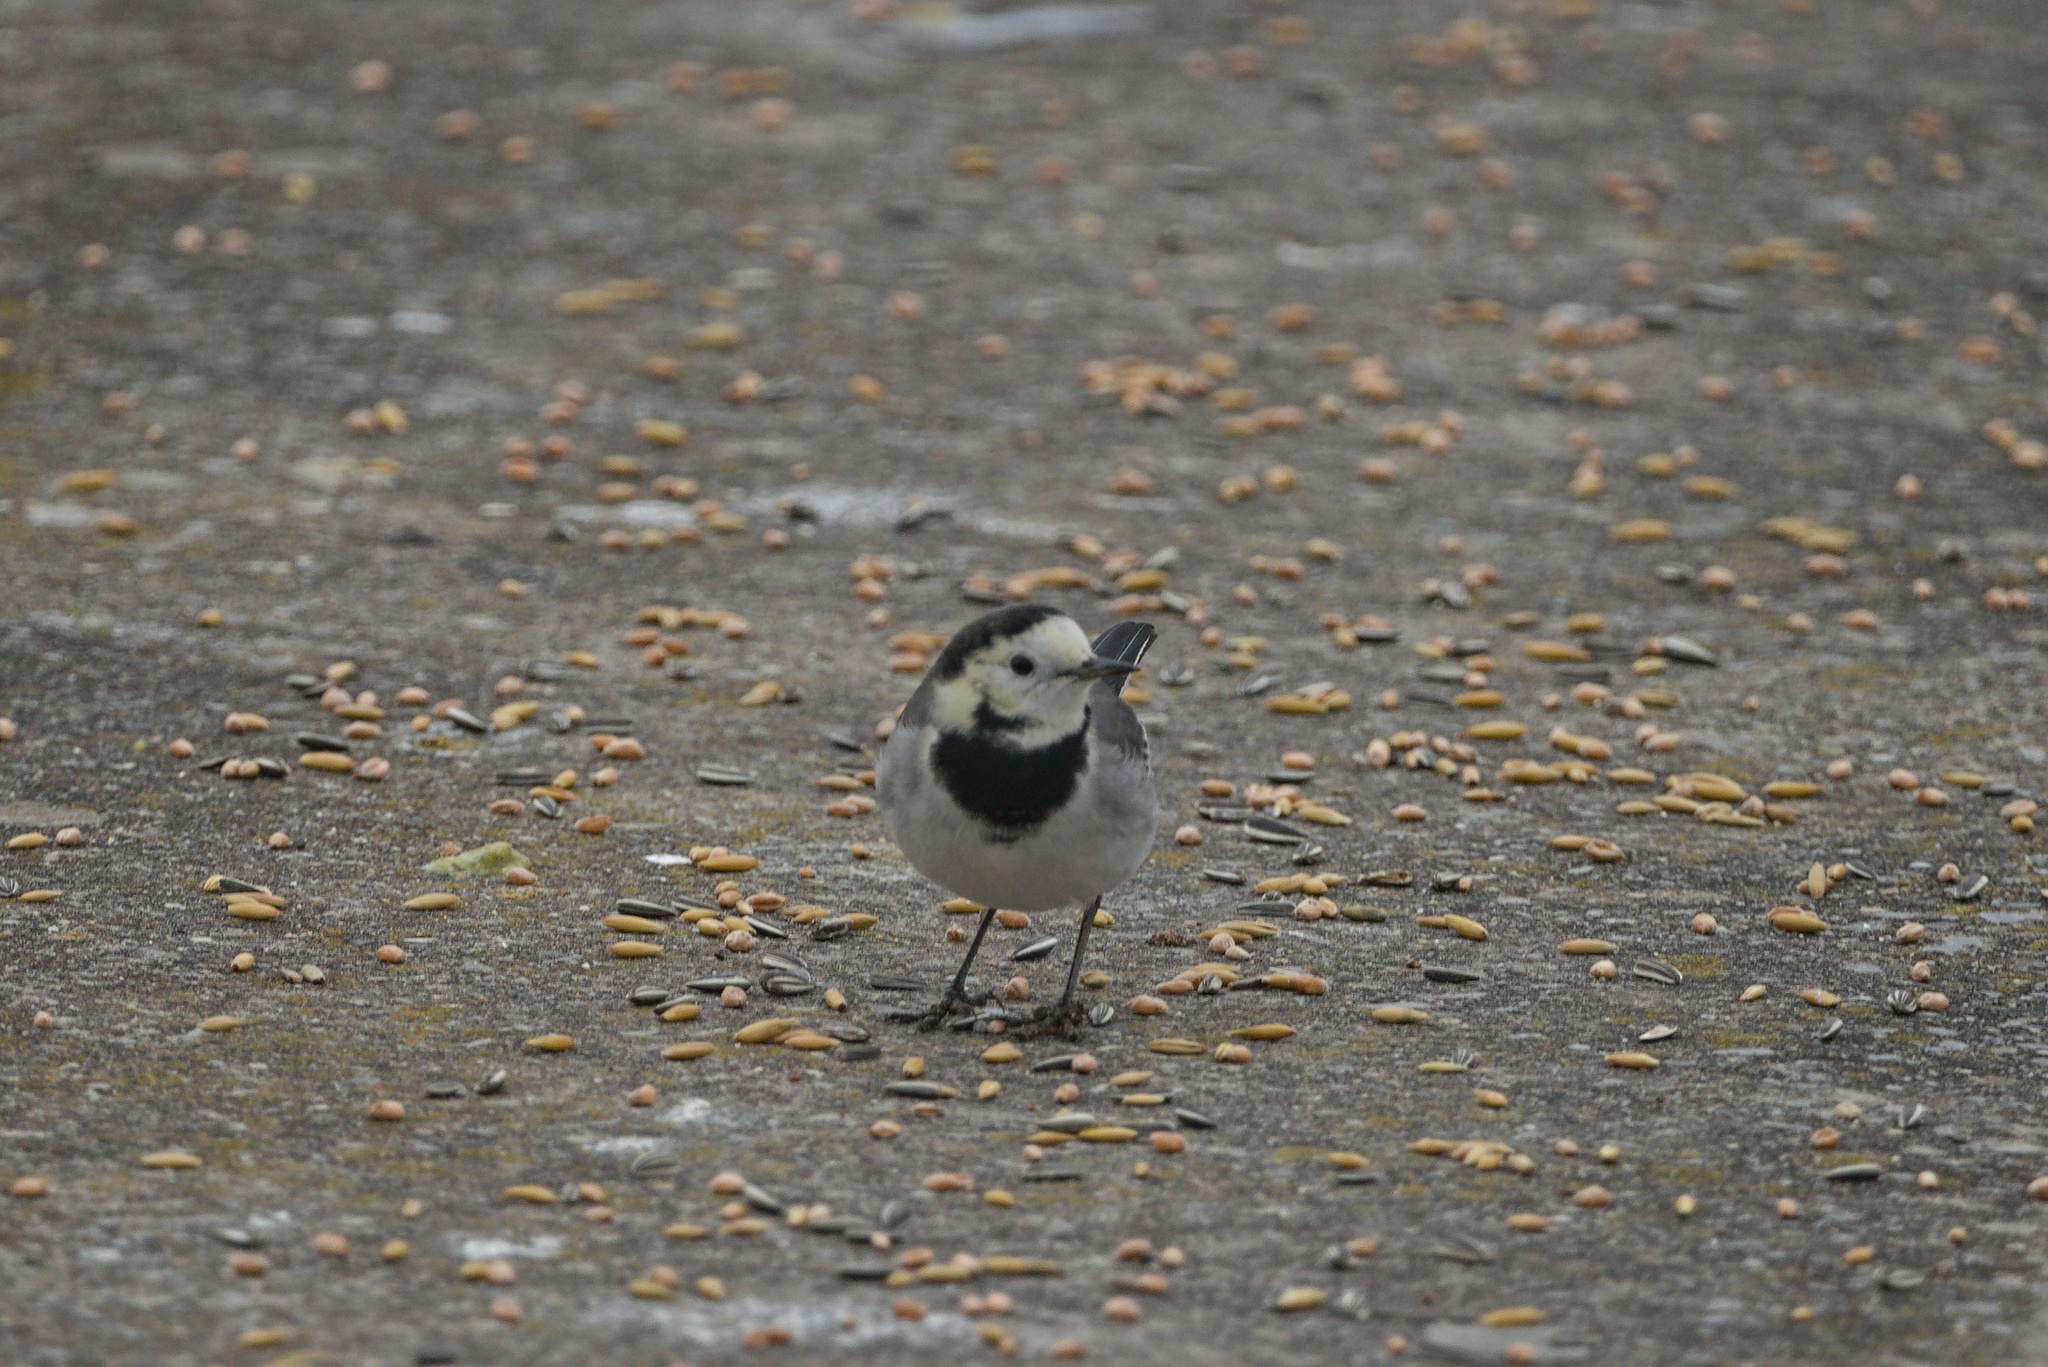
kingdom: Animalia
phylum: Chordata
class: Aves
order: Passeriformes
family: Motacillidae
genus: Motacilla
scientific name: Motacilla alba
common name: White wagtail
